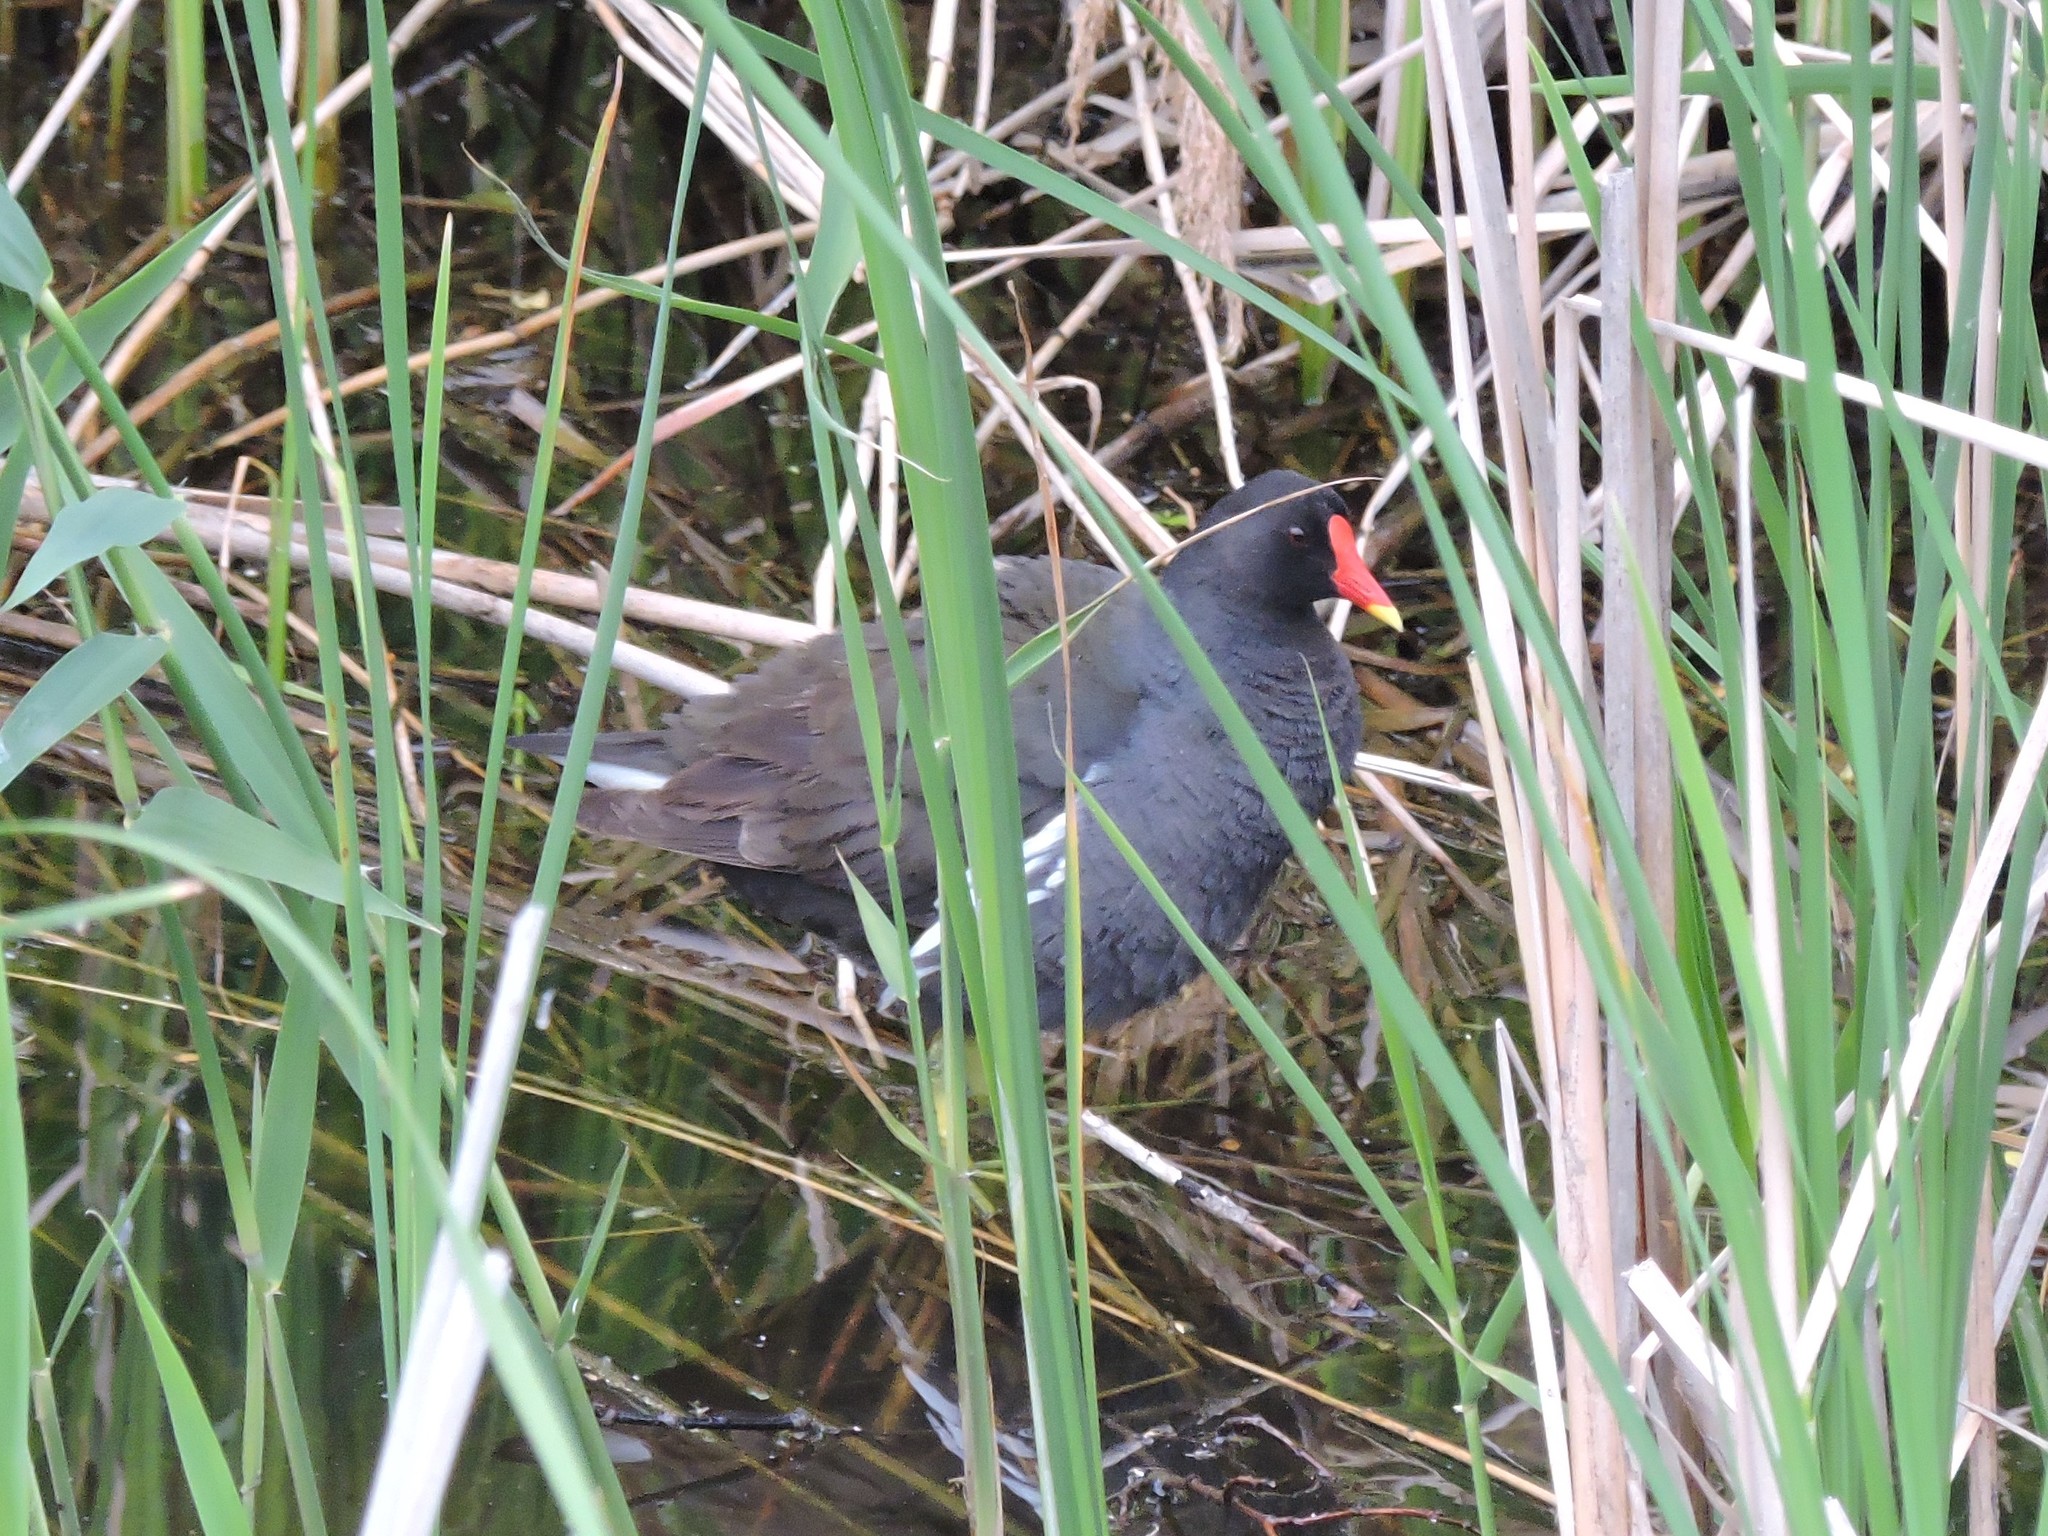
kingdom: Animalia
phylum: Chordata
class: Aves
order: Gruiformes
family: Rallidae
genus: Gallinula
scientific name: Gallinula chloropus
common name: Common moorhen
